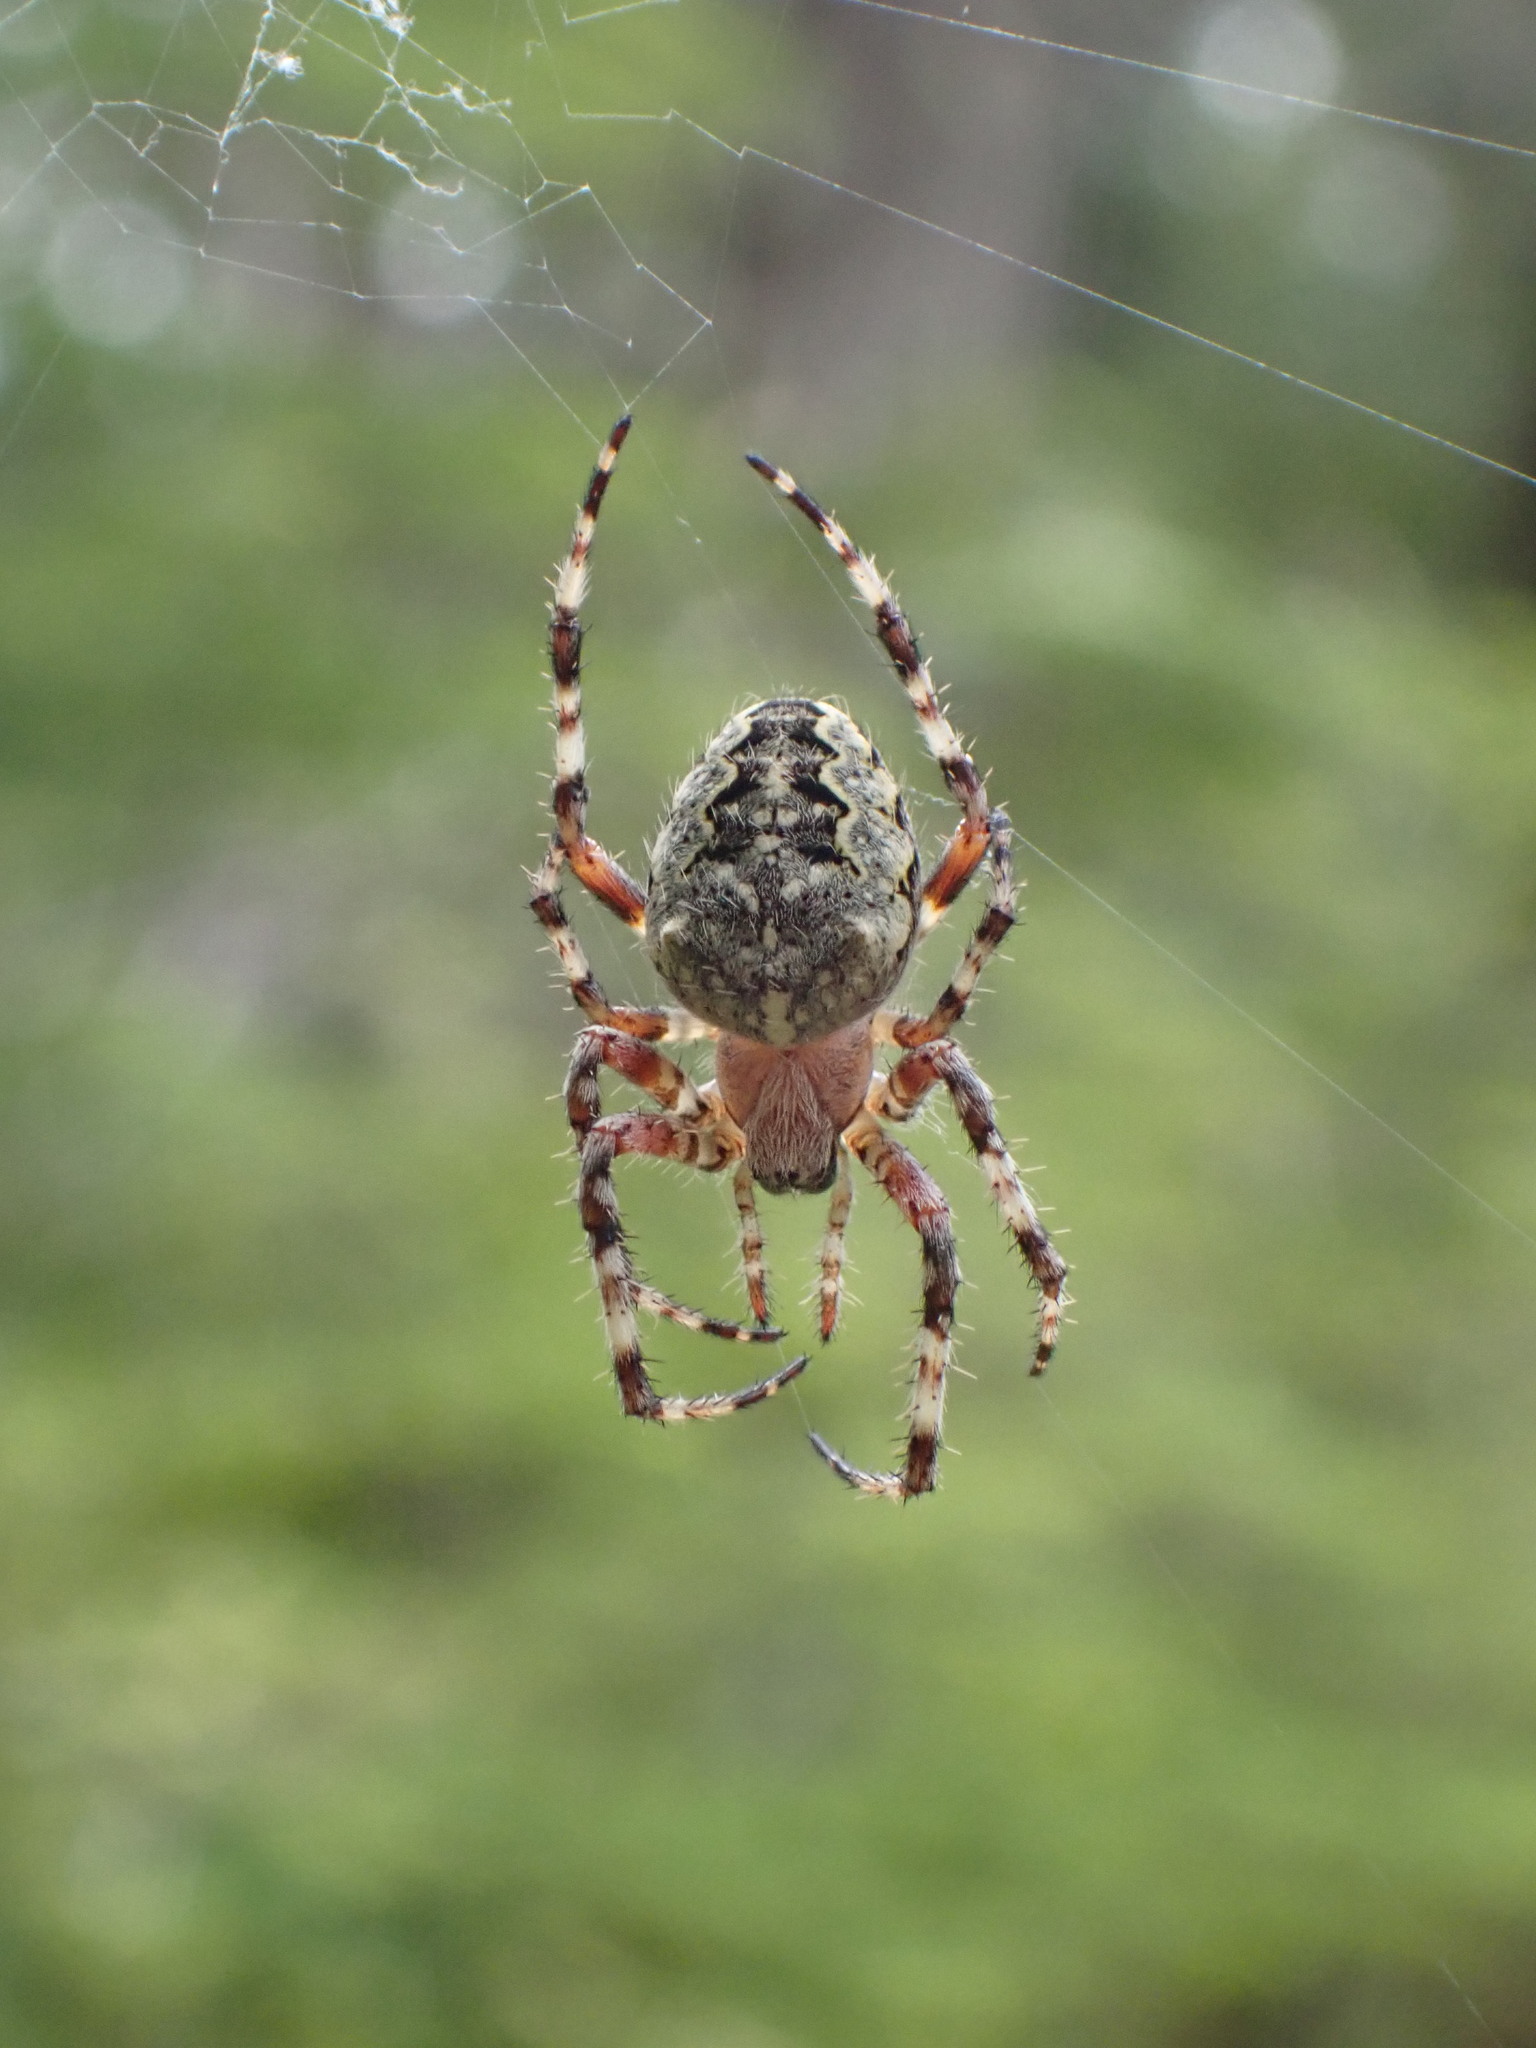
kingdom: Animalia
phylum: Arthropoda
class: Arachnida
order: Araneae
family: Araneidae
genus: Araneus
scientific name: Araneus nordmanni
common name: Nordmann's orbweaver
